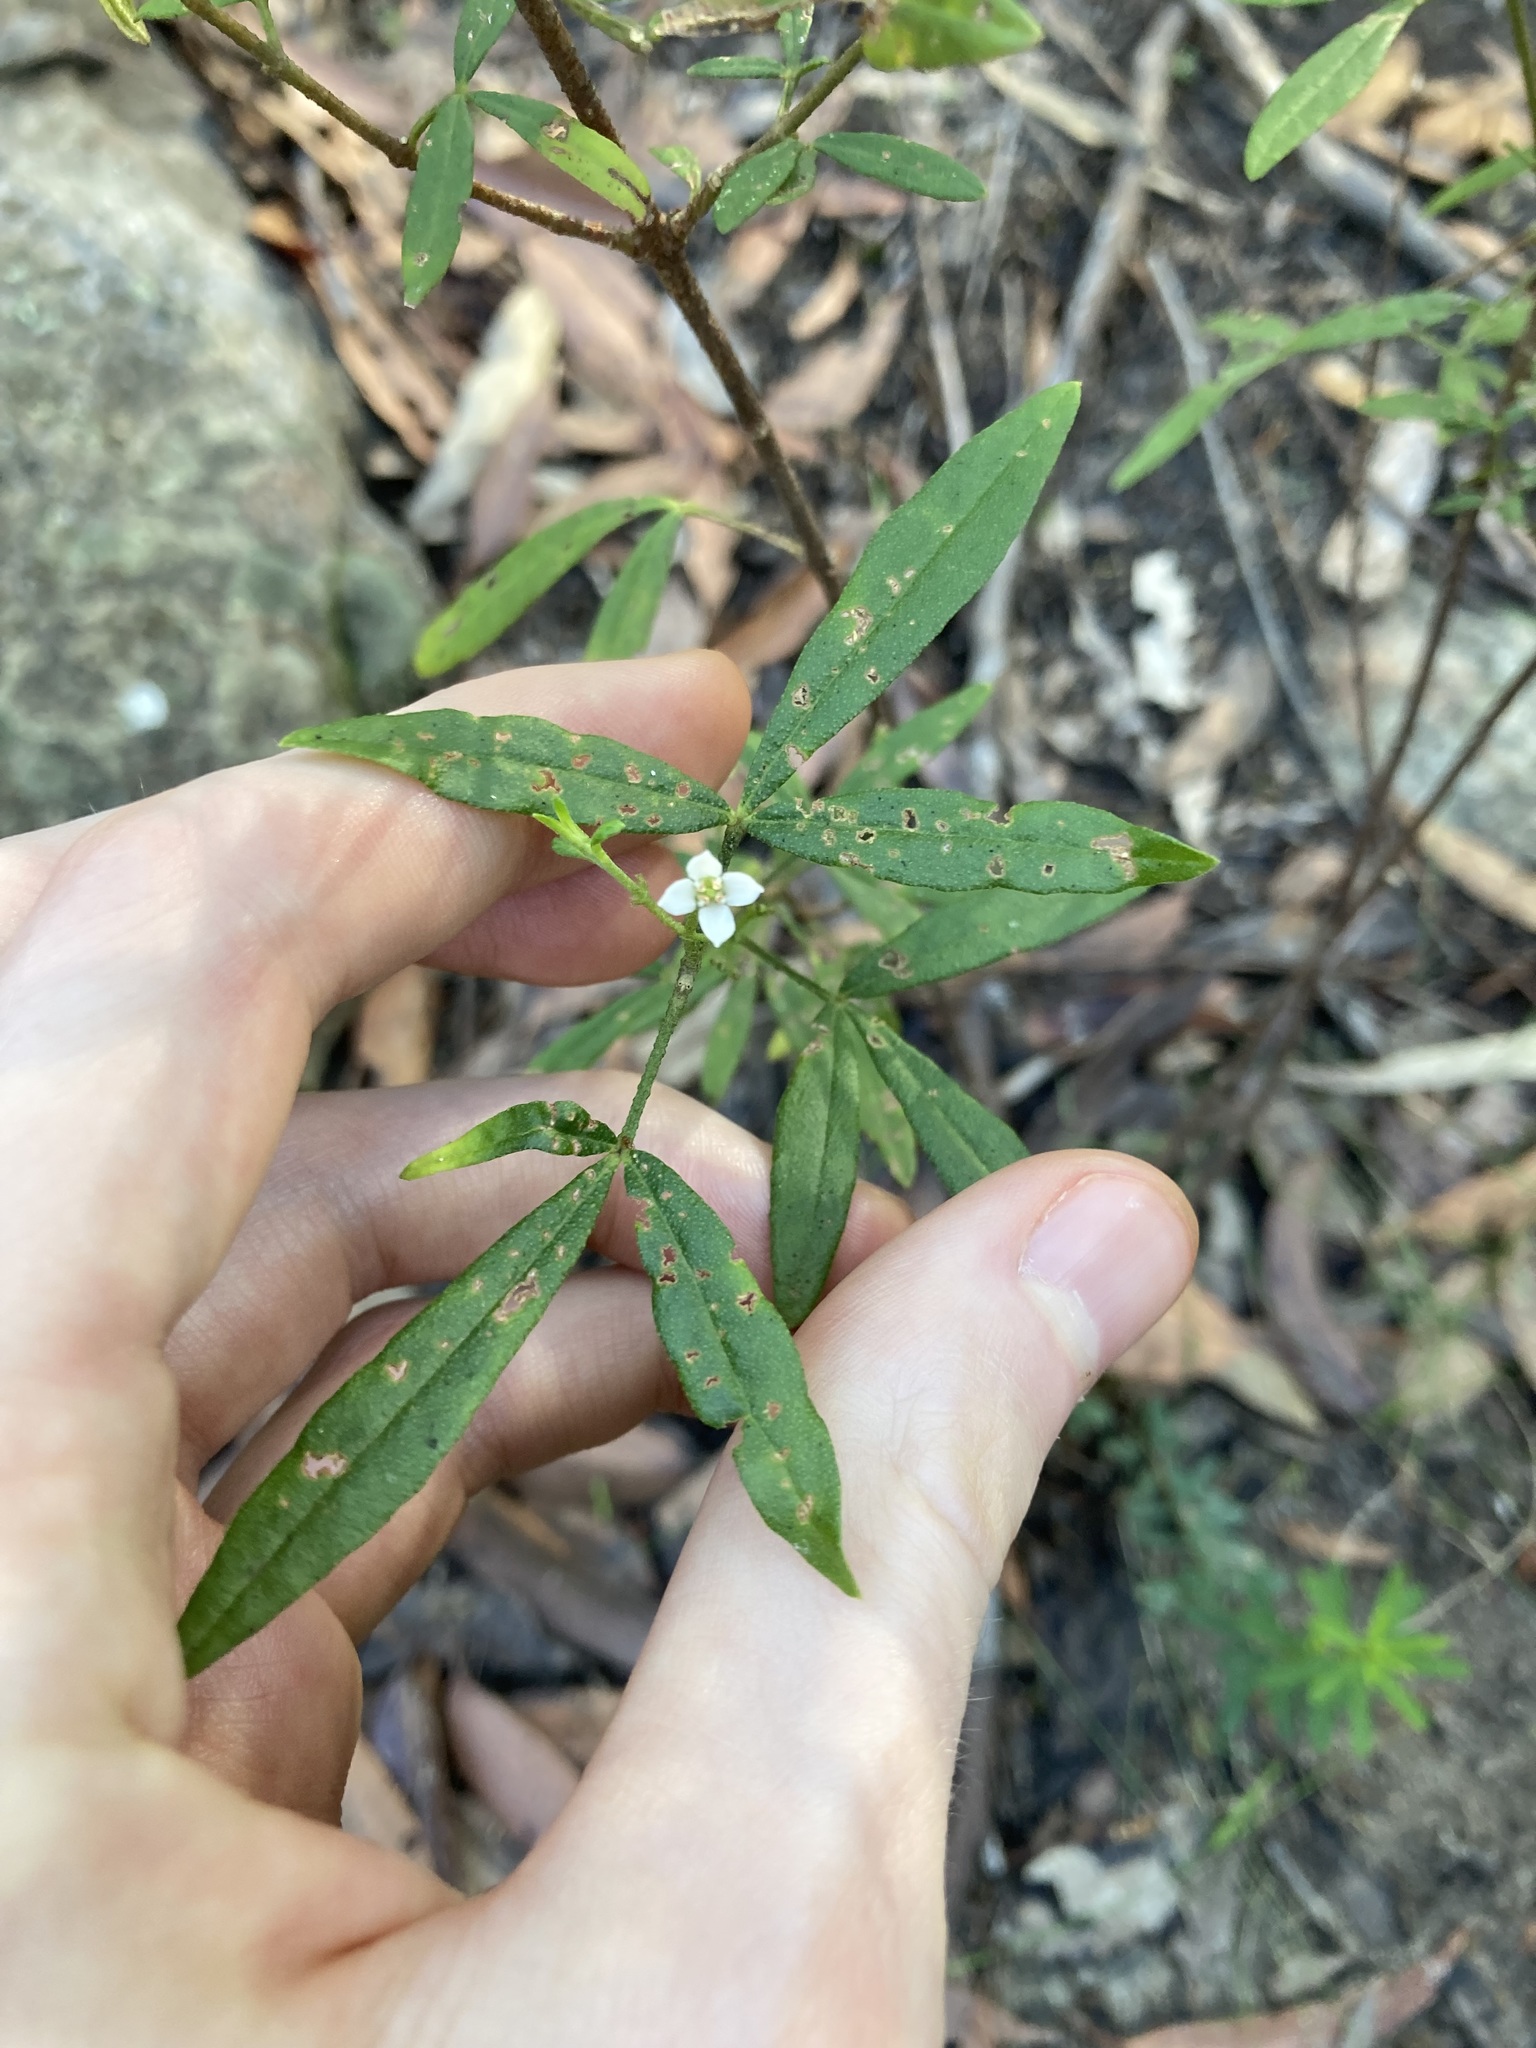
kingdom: Plantae
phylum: Tracheophyta
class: Magnoliopsida
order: Sapindales
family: Rutaceae
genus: Zieria
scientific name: Zieria smithii
